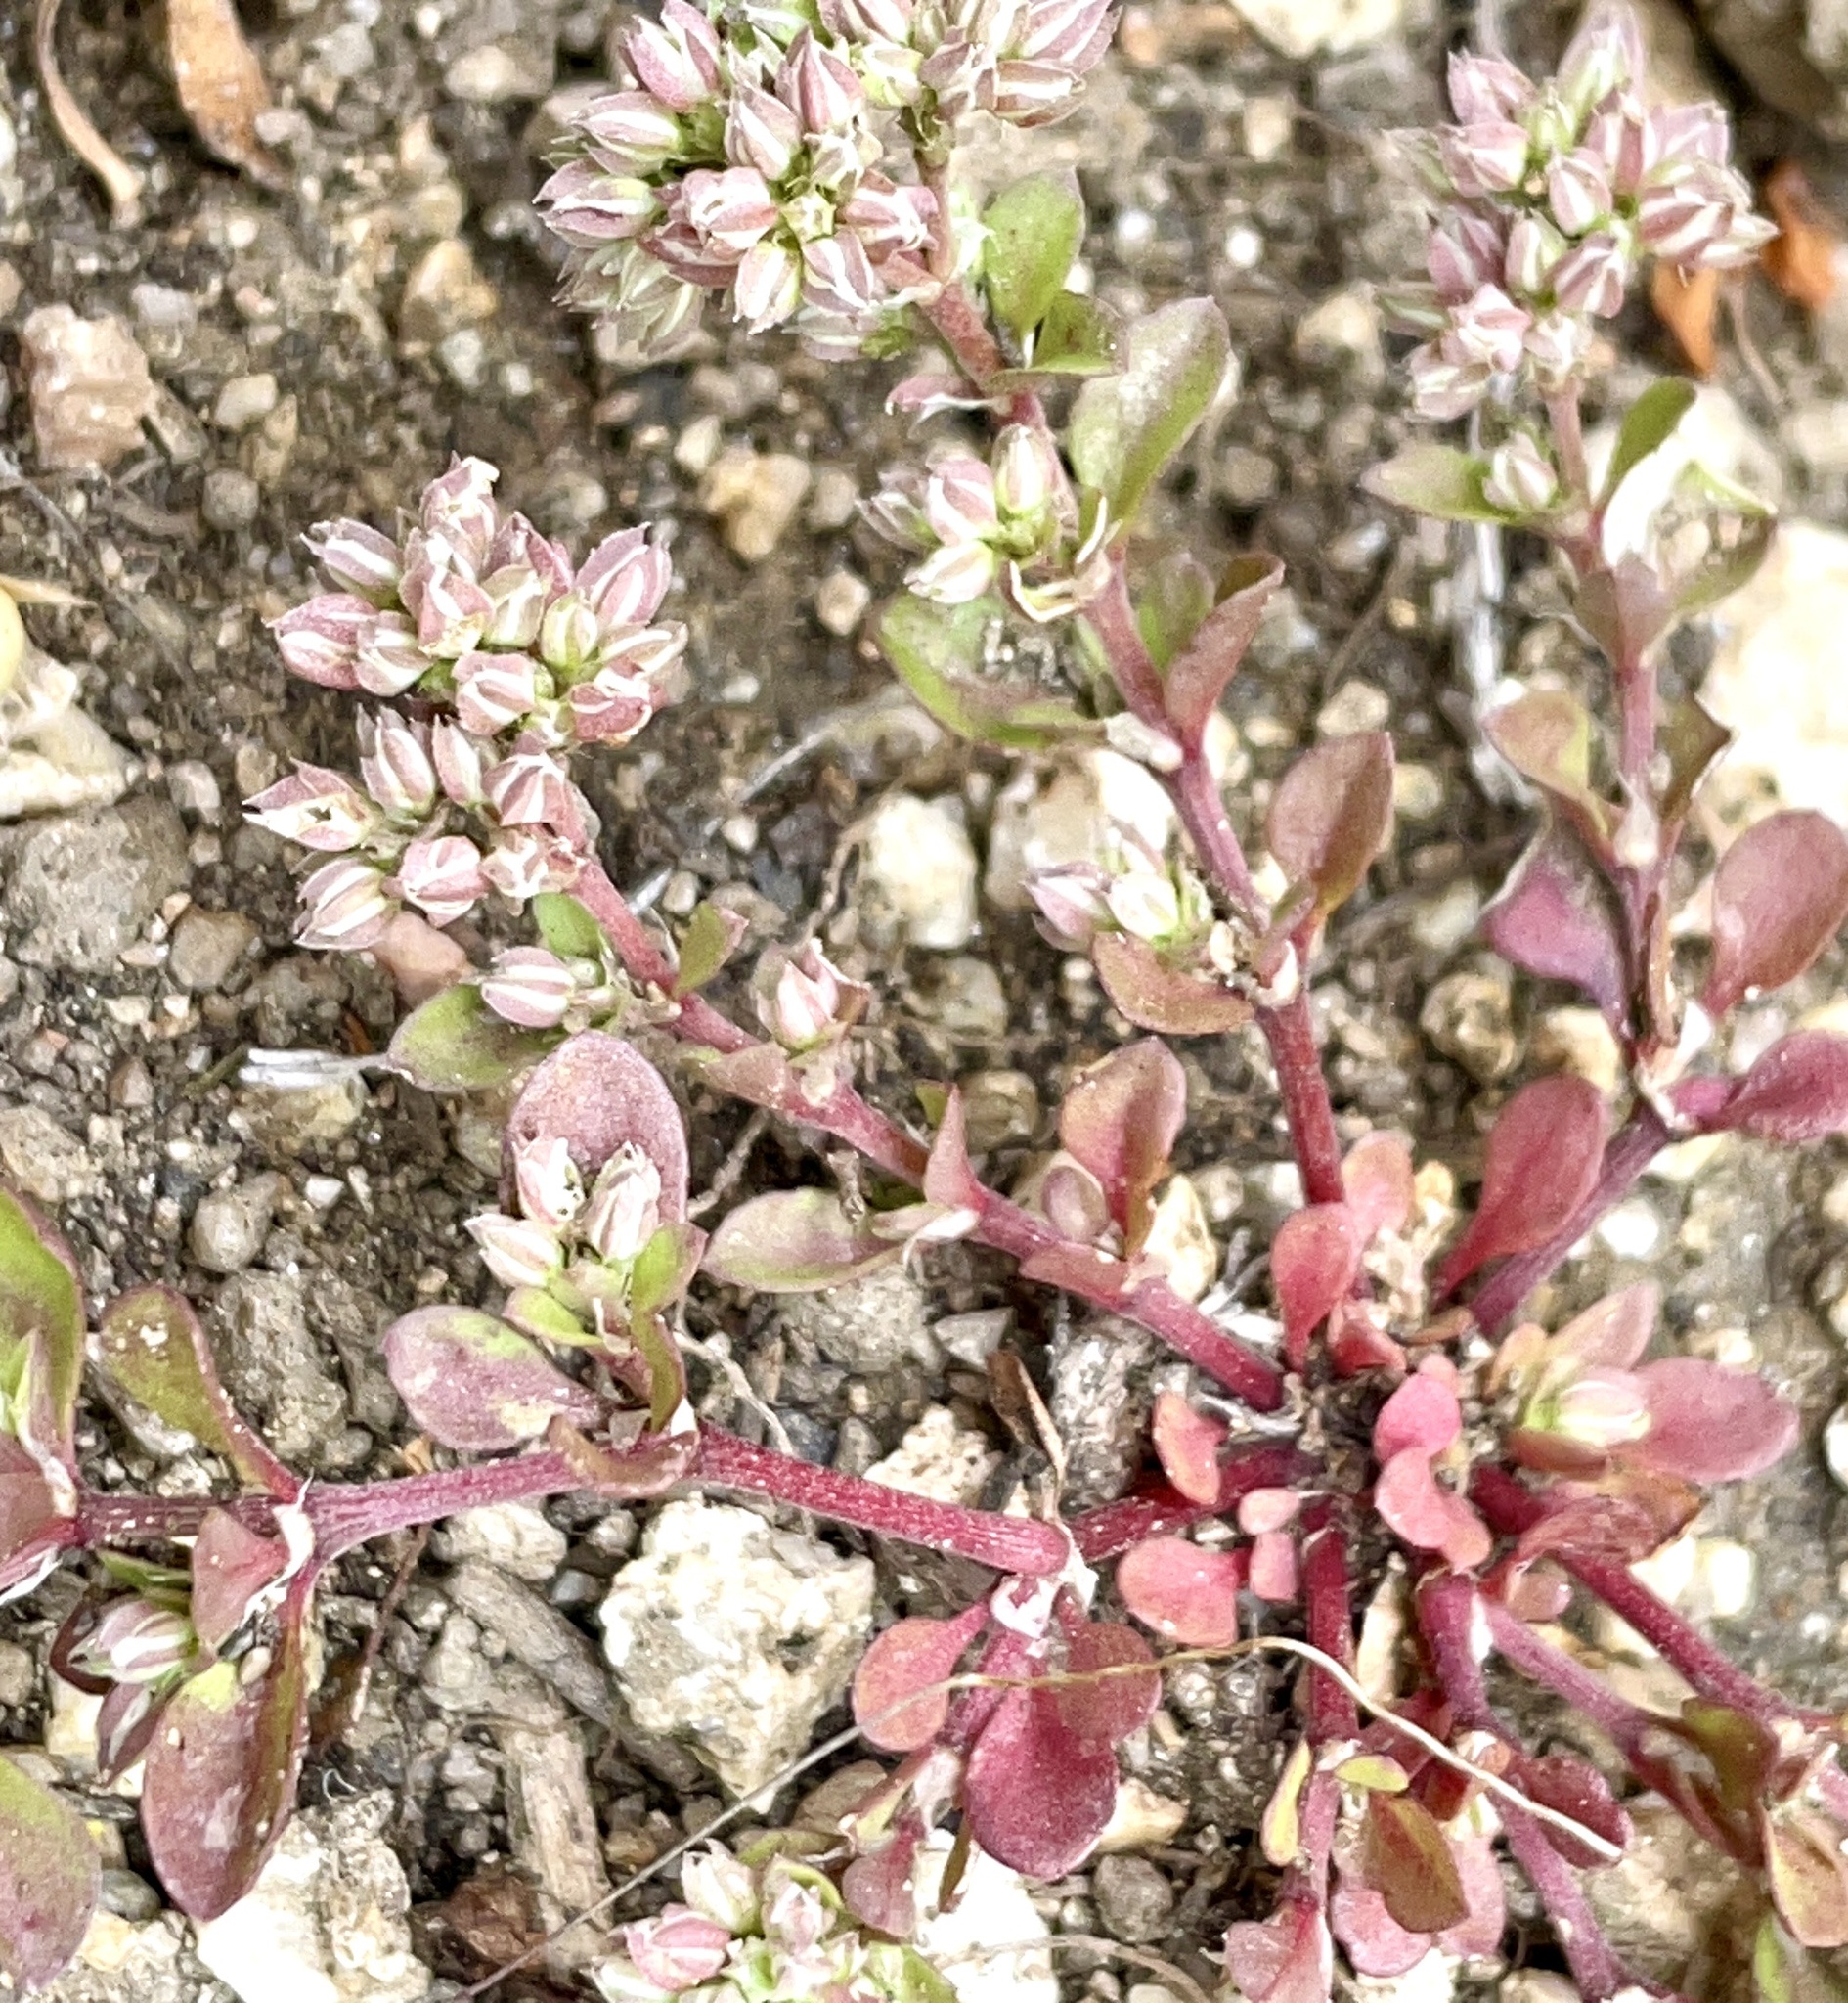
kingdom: Plantae
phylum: Tracheophyta
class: Magnoliopsida
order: Caryophyllales
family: Caryophyllaceae
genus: Polycarpon
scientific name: Polycarpon tetraphyllum
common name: Four-leaved all-seed
